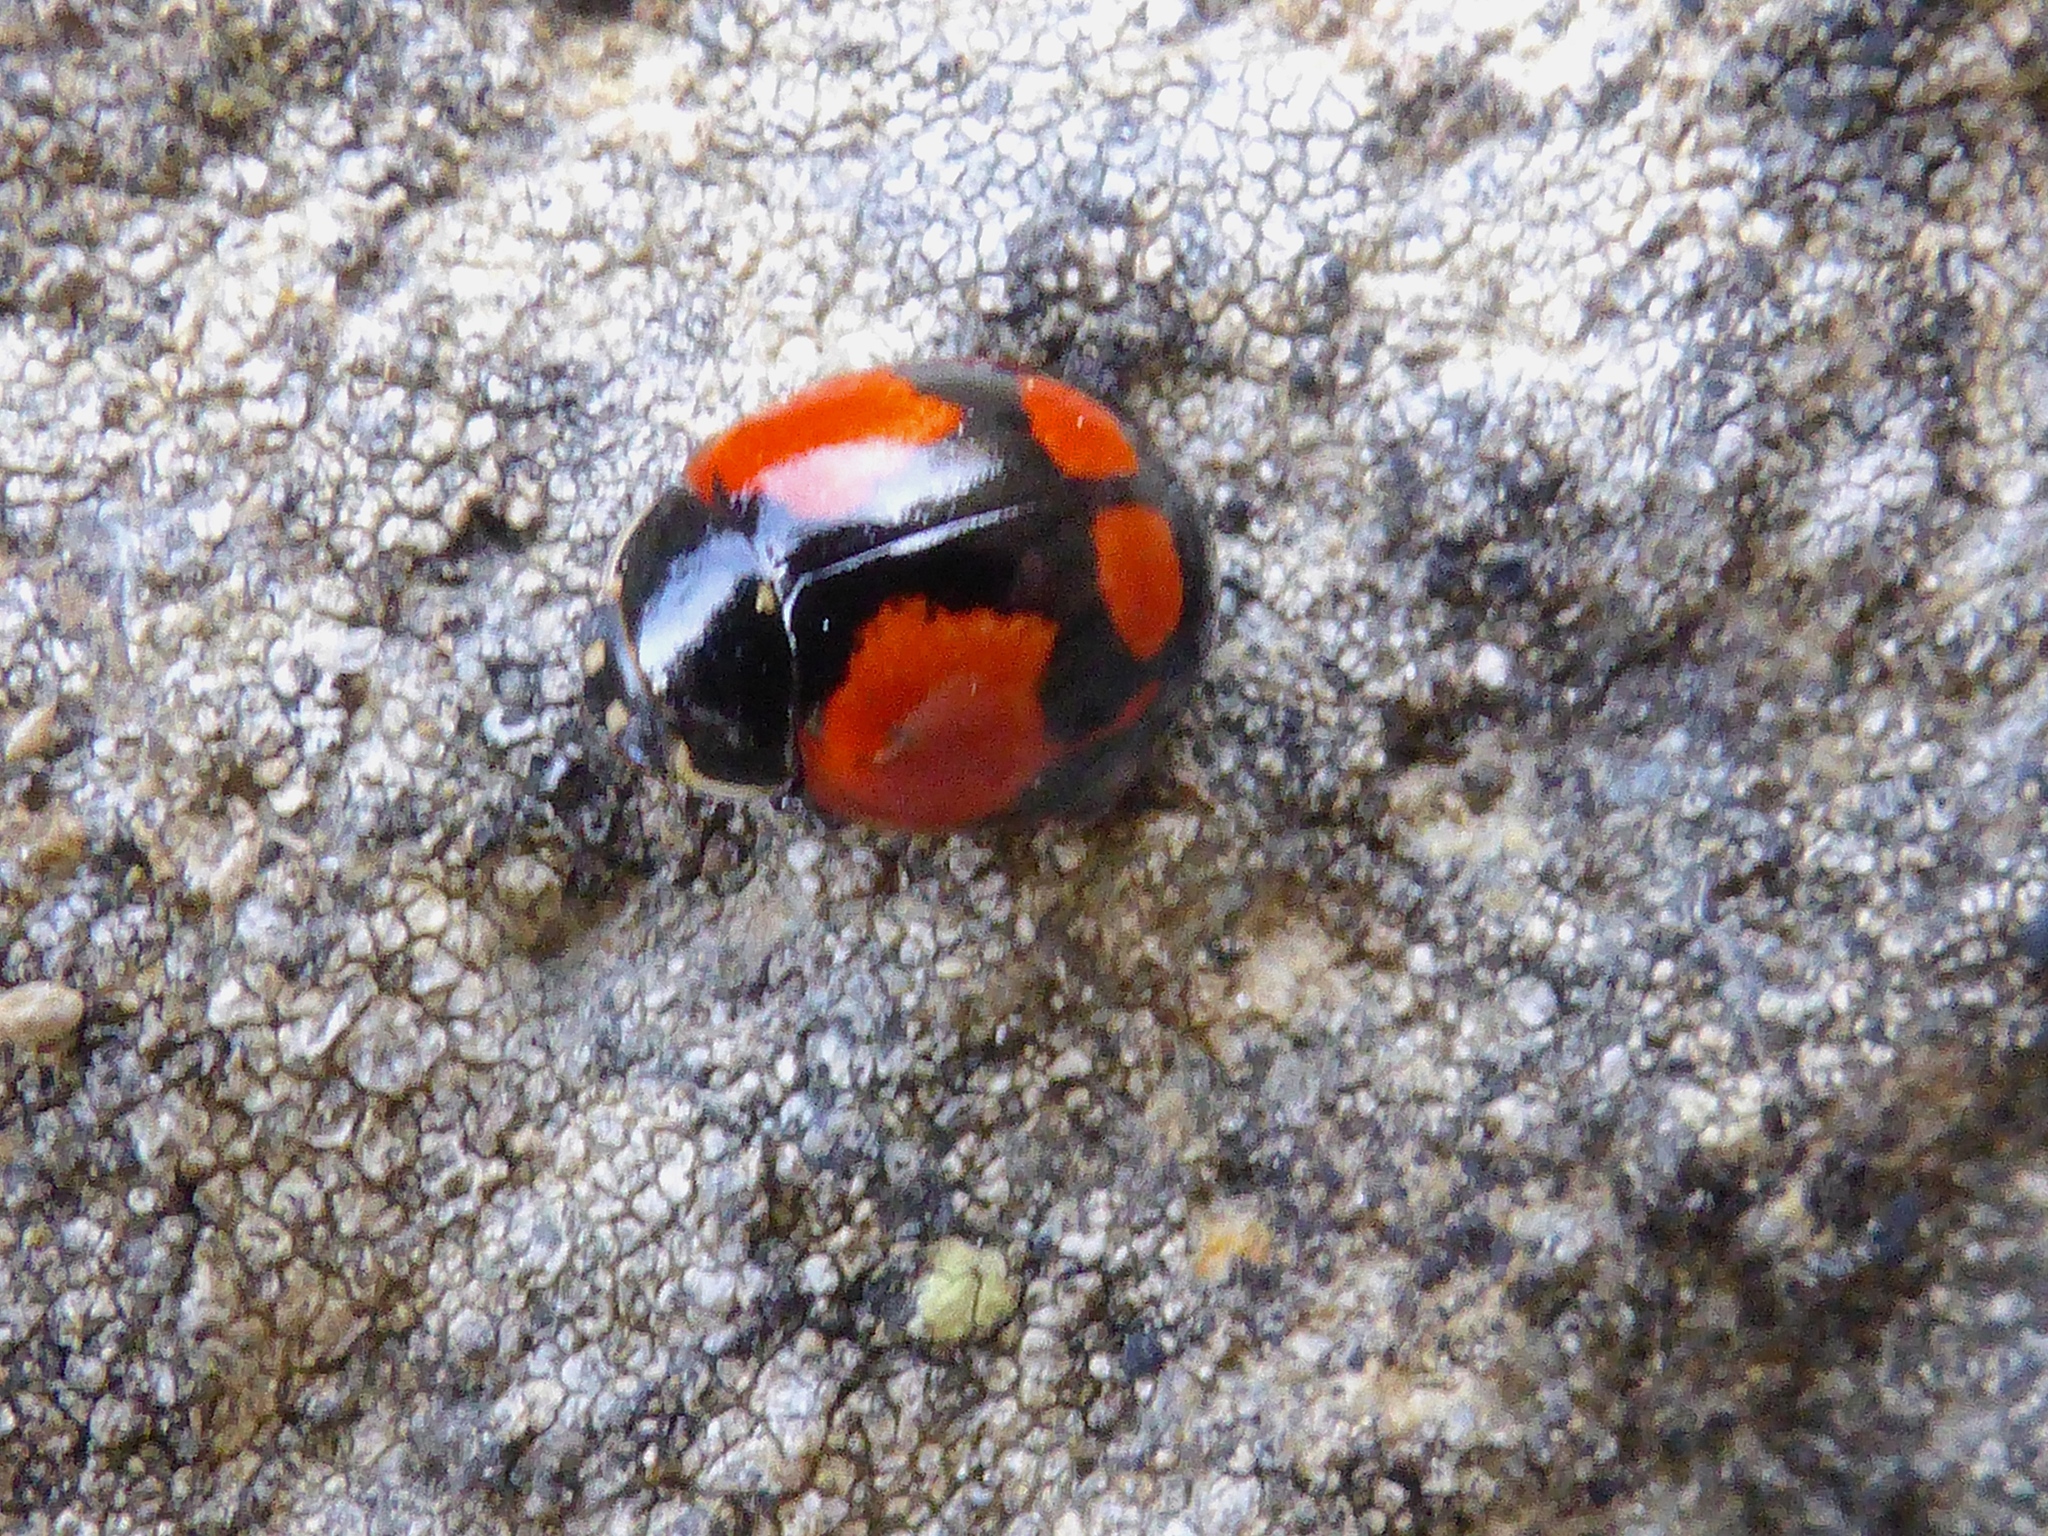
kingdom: Animalia
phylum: Arthropoda
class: Insecta
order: Coleoptera
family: Coccinellidae
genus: Adalia
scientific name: Adalia bipunctata
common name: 2-spot ladybird
